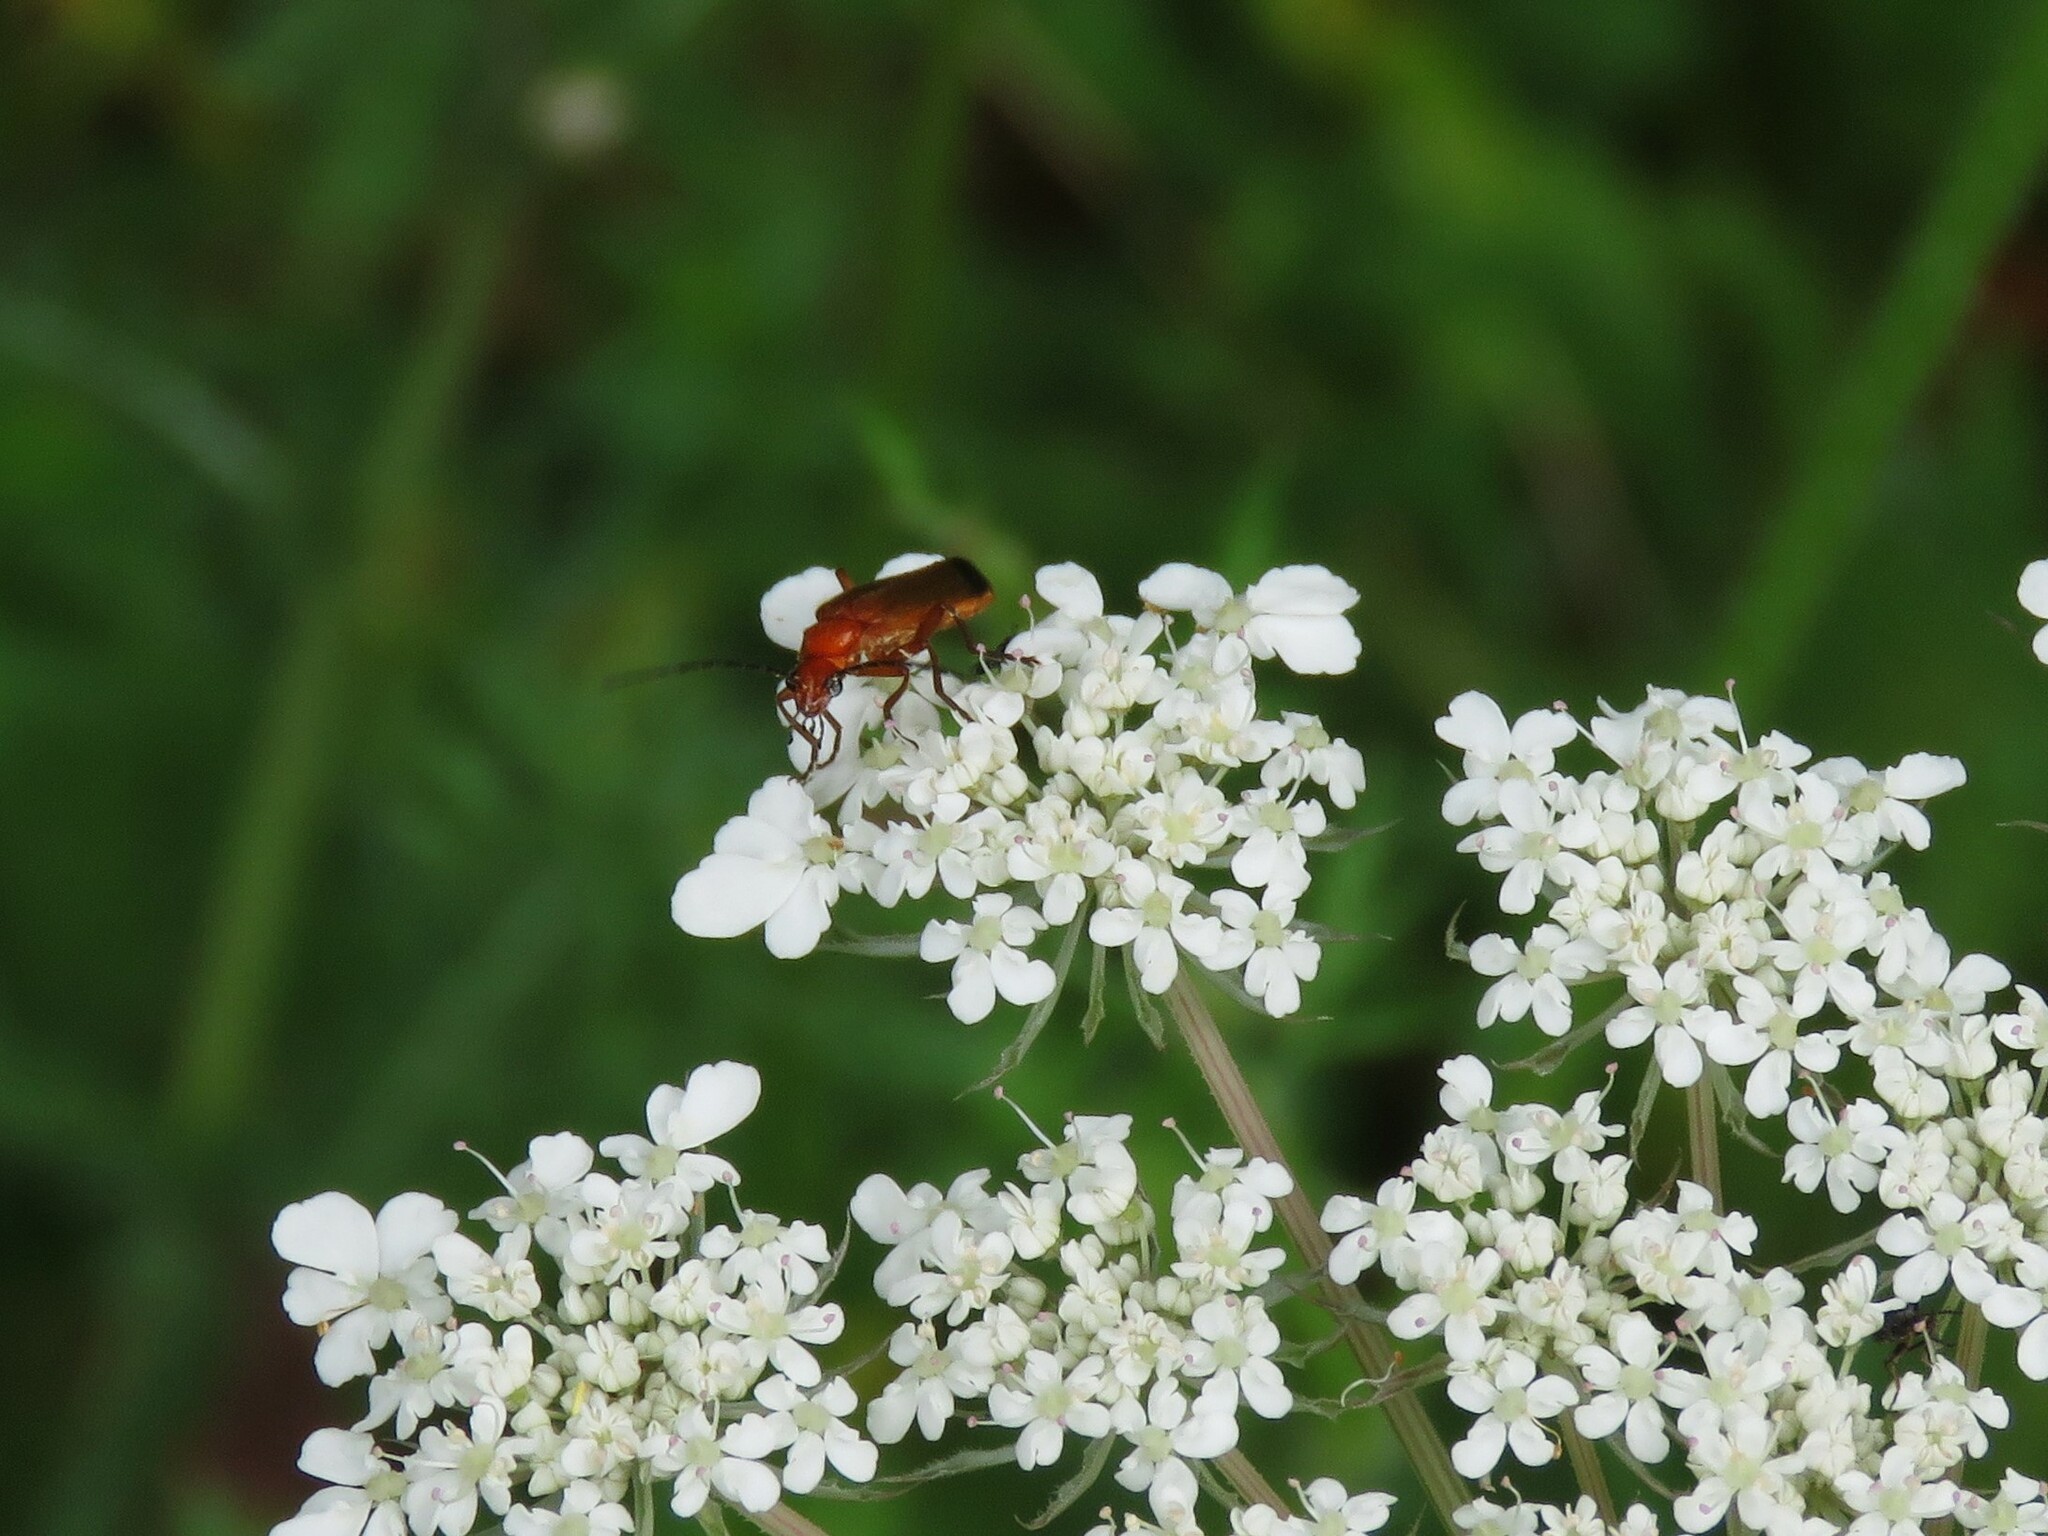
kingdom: Animalia
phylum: Arthropoda
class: Insecta
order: Coleoptera
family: Cantharidae
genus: Rhagonycha
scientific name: Rhagonycha fulva
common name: Common red soldier beetle
